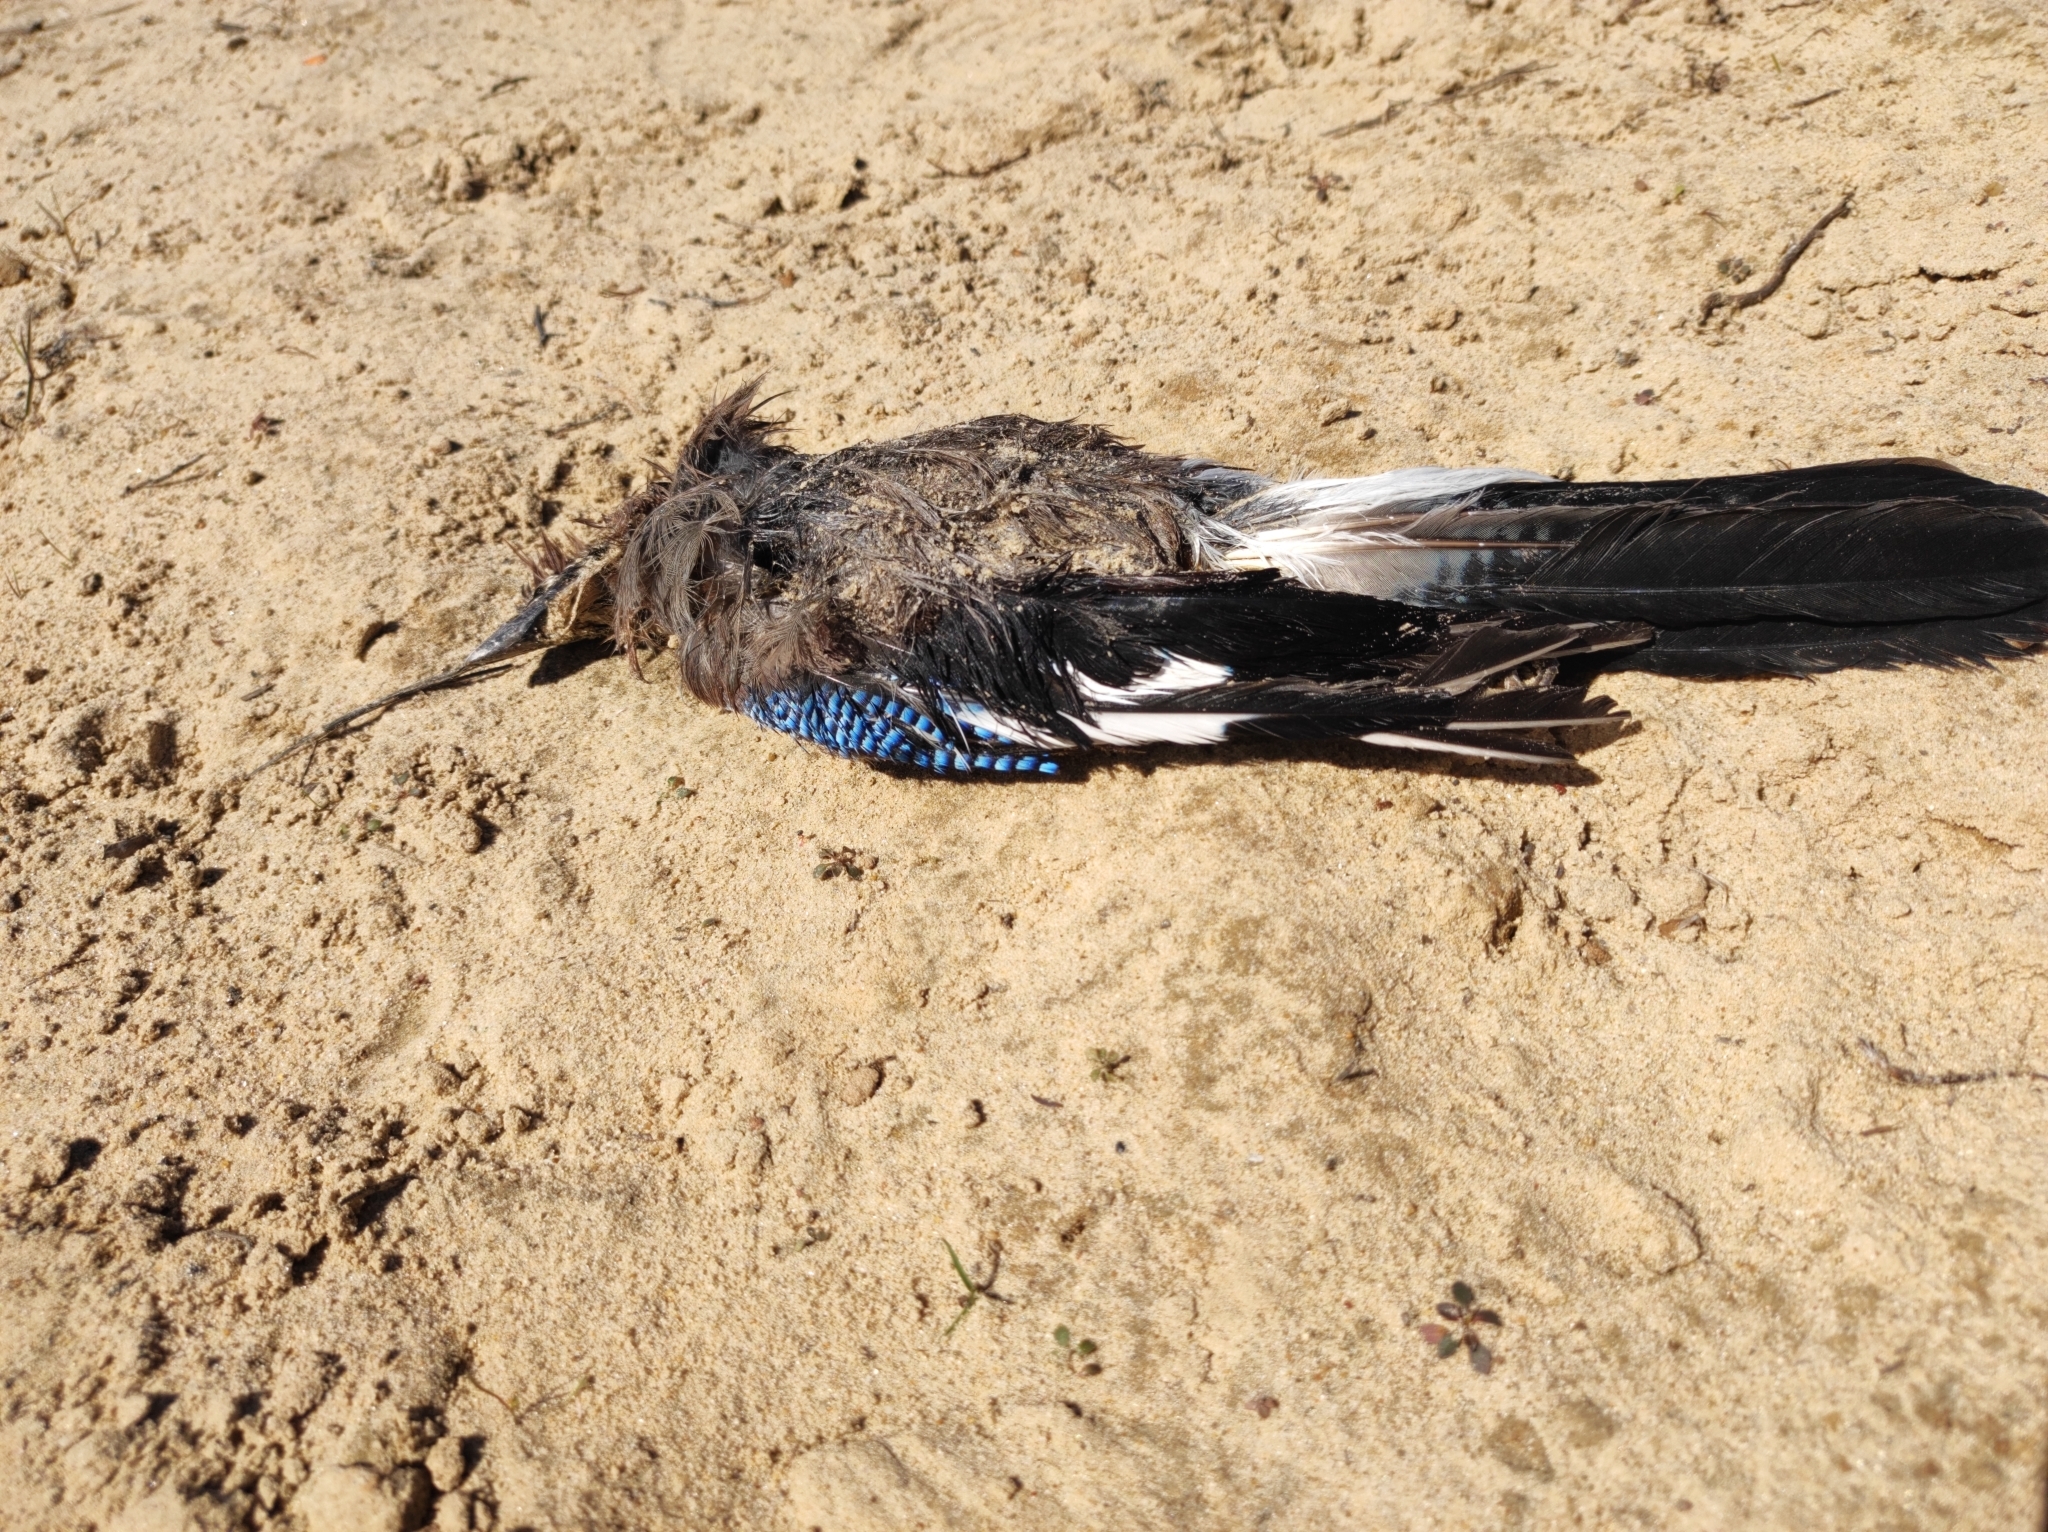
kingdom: Animalia
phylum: Chordata
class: Aves
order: Passeriformes
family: Corvidae
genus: Garrulus
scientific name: Garrulus glandarius
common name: Eurasian jay
